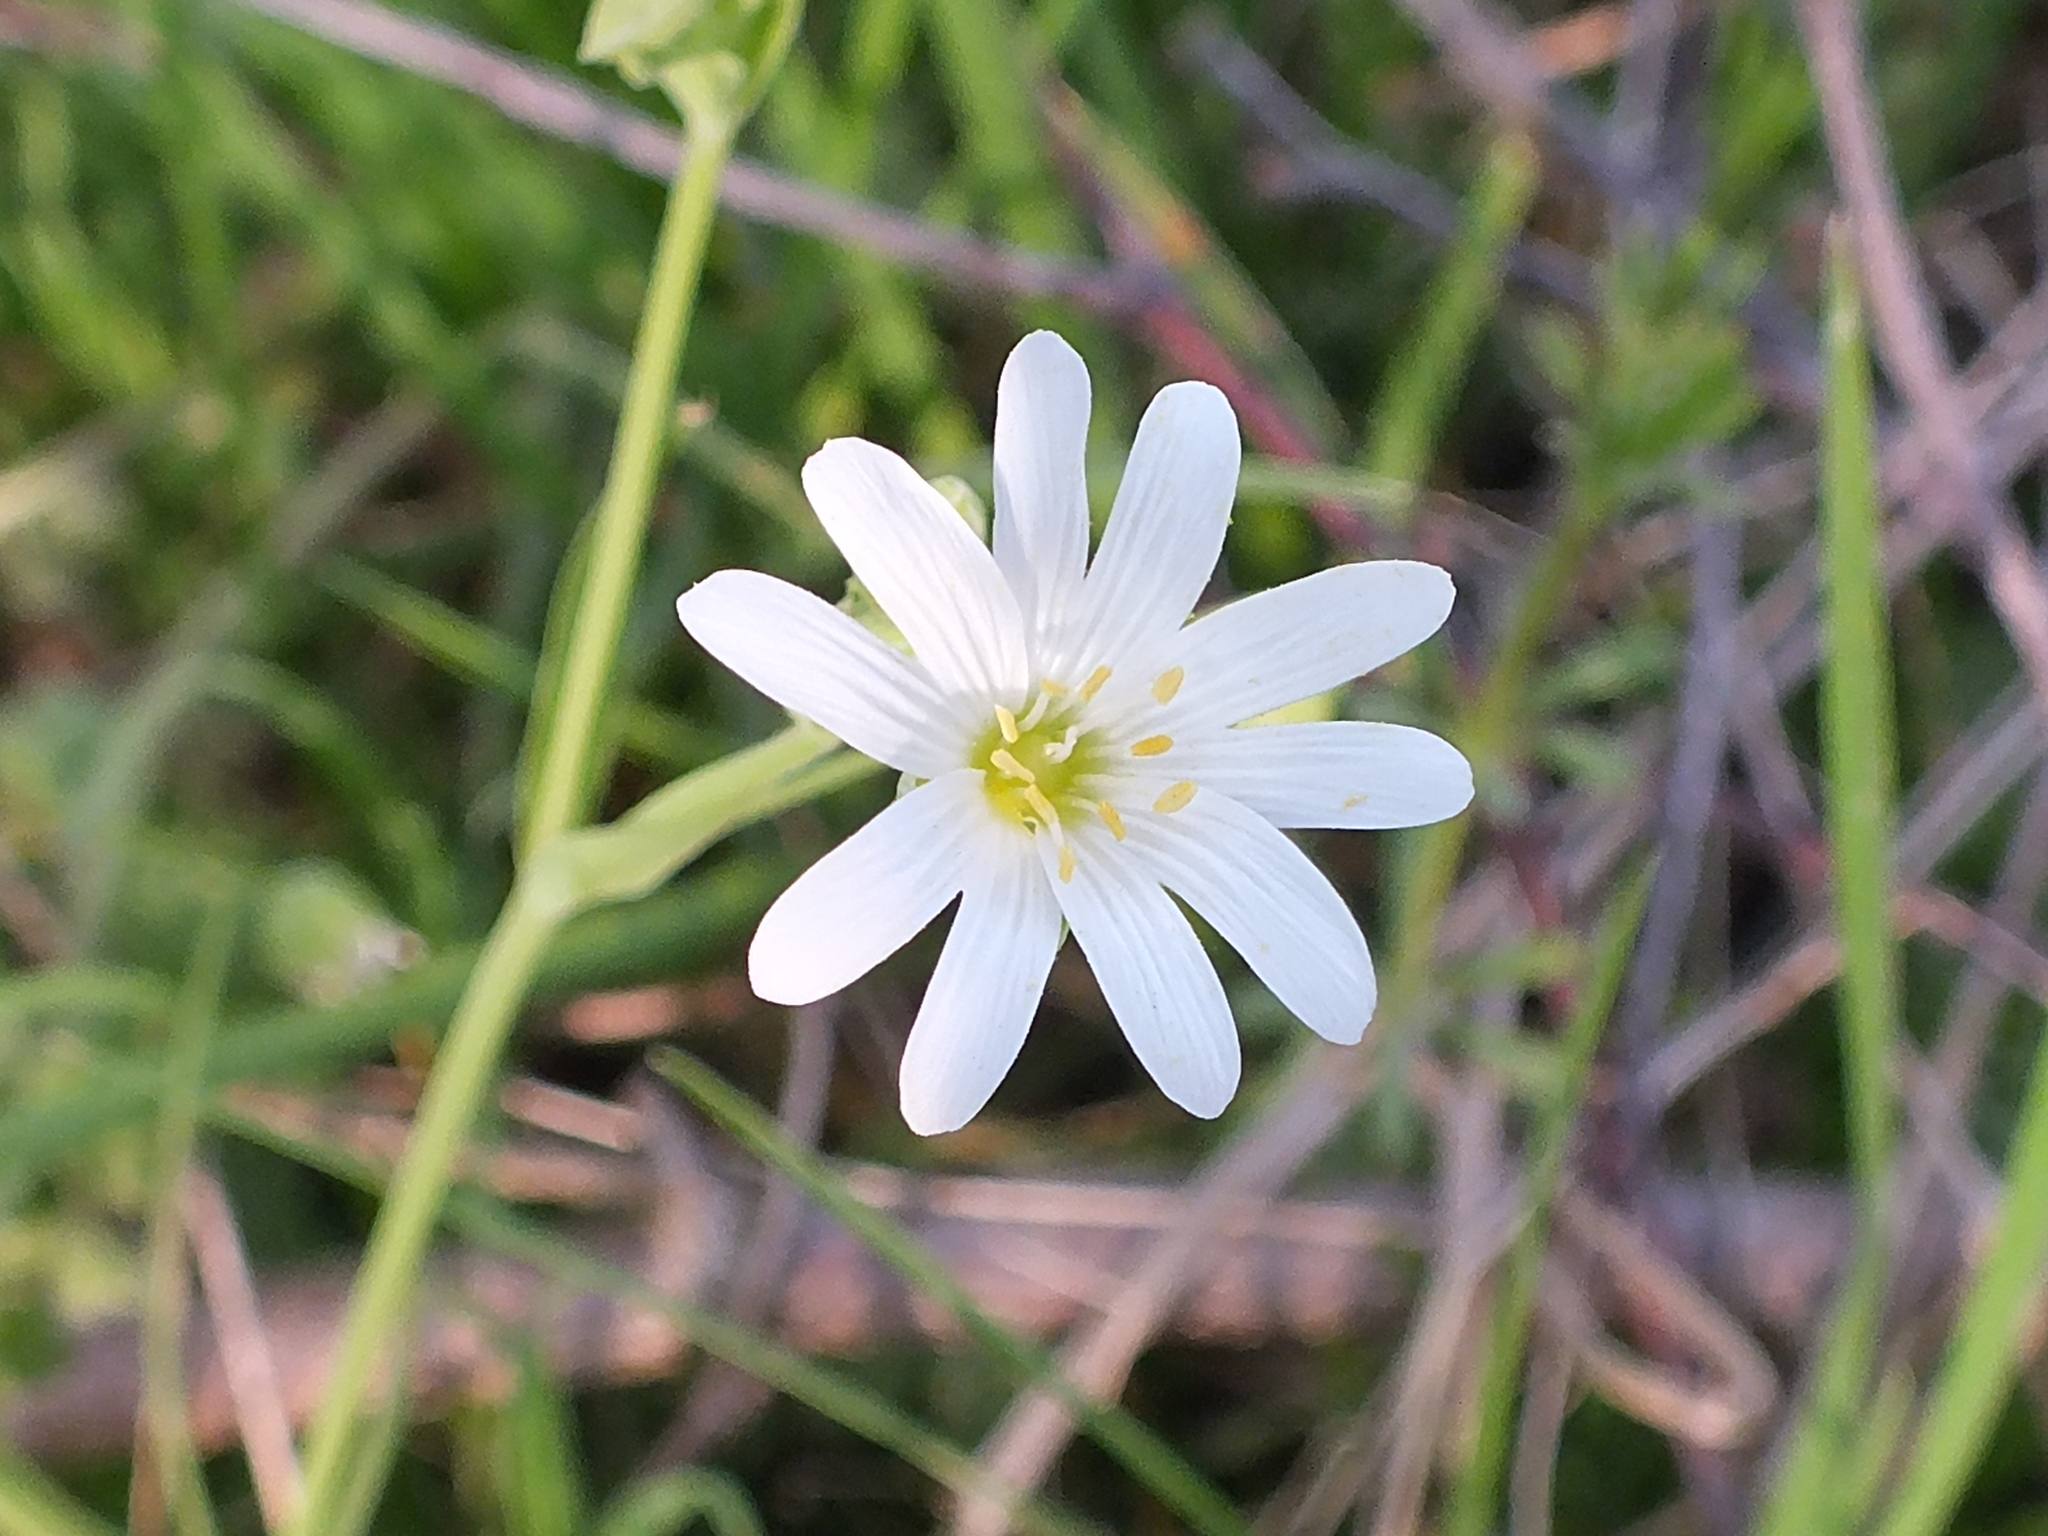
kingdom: Plantae
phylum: Tracheophyta
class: Magnoliopsida
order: Caryophyllales
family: Caryophyllaceae
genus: Rabelera
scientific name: Rabelera holostea
